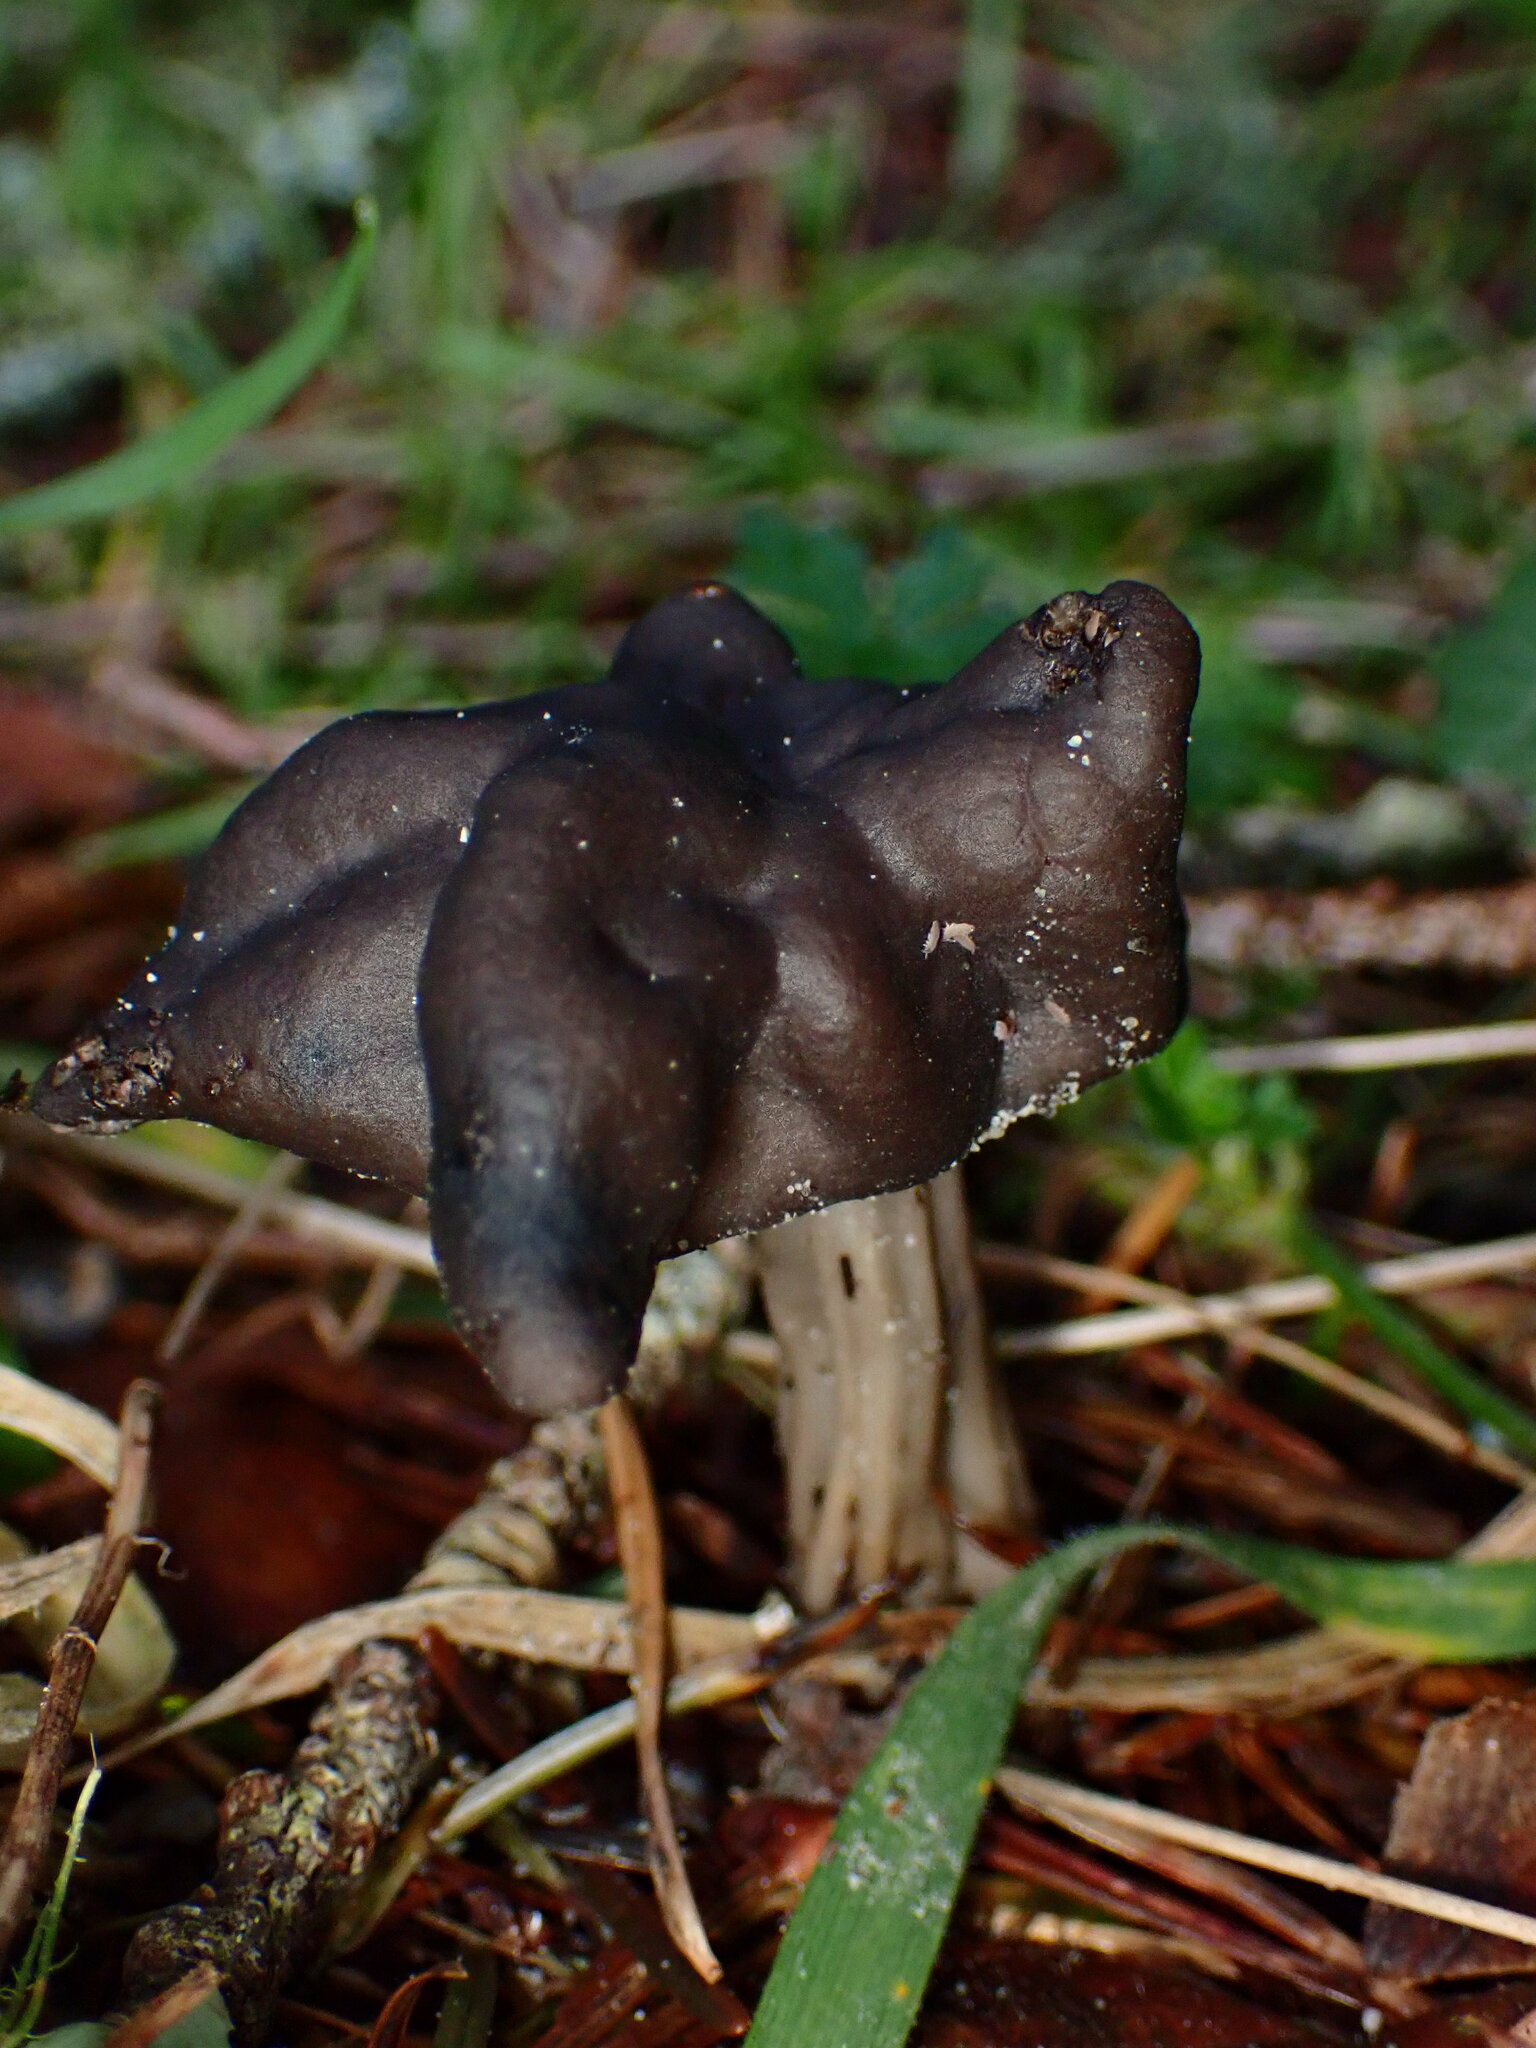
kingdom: Fungi
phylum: Ascomycota
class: Pezizomycetes
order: Pezizales
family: Helvellaceae
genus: Helvella
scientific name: Helvella vespertina
